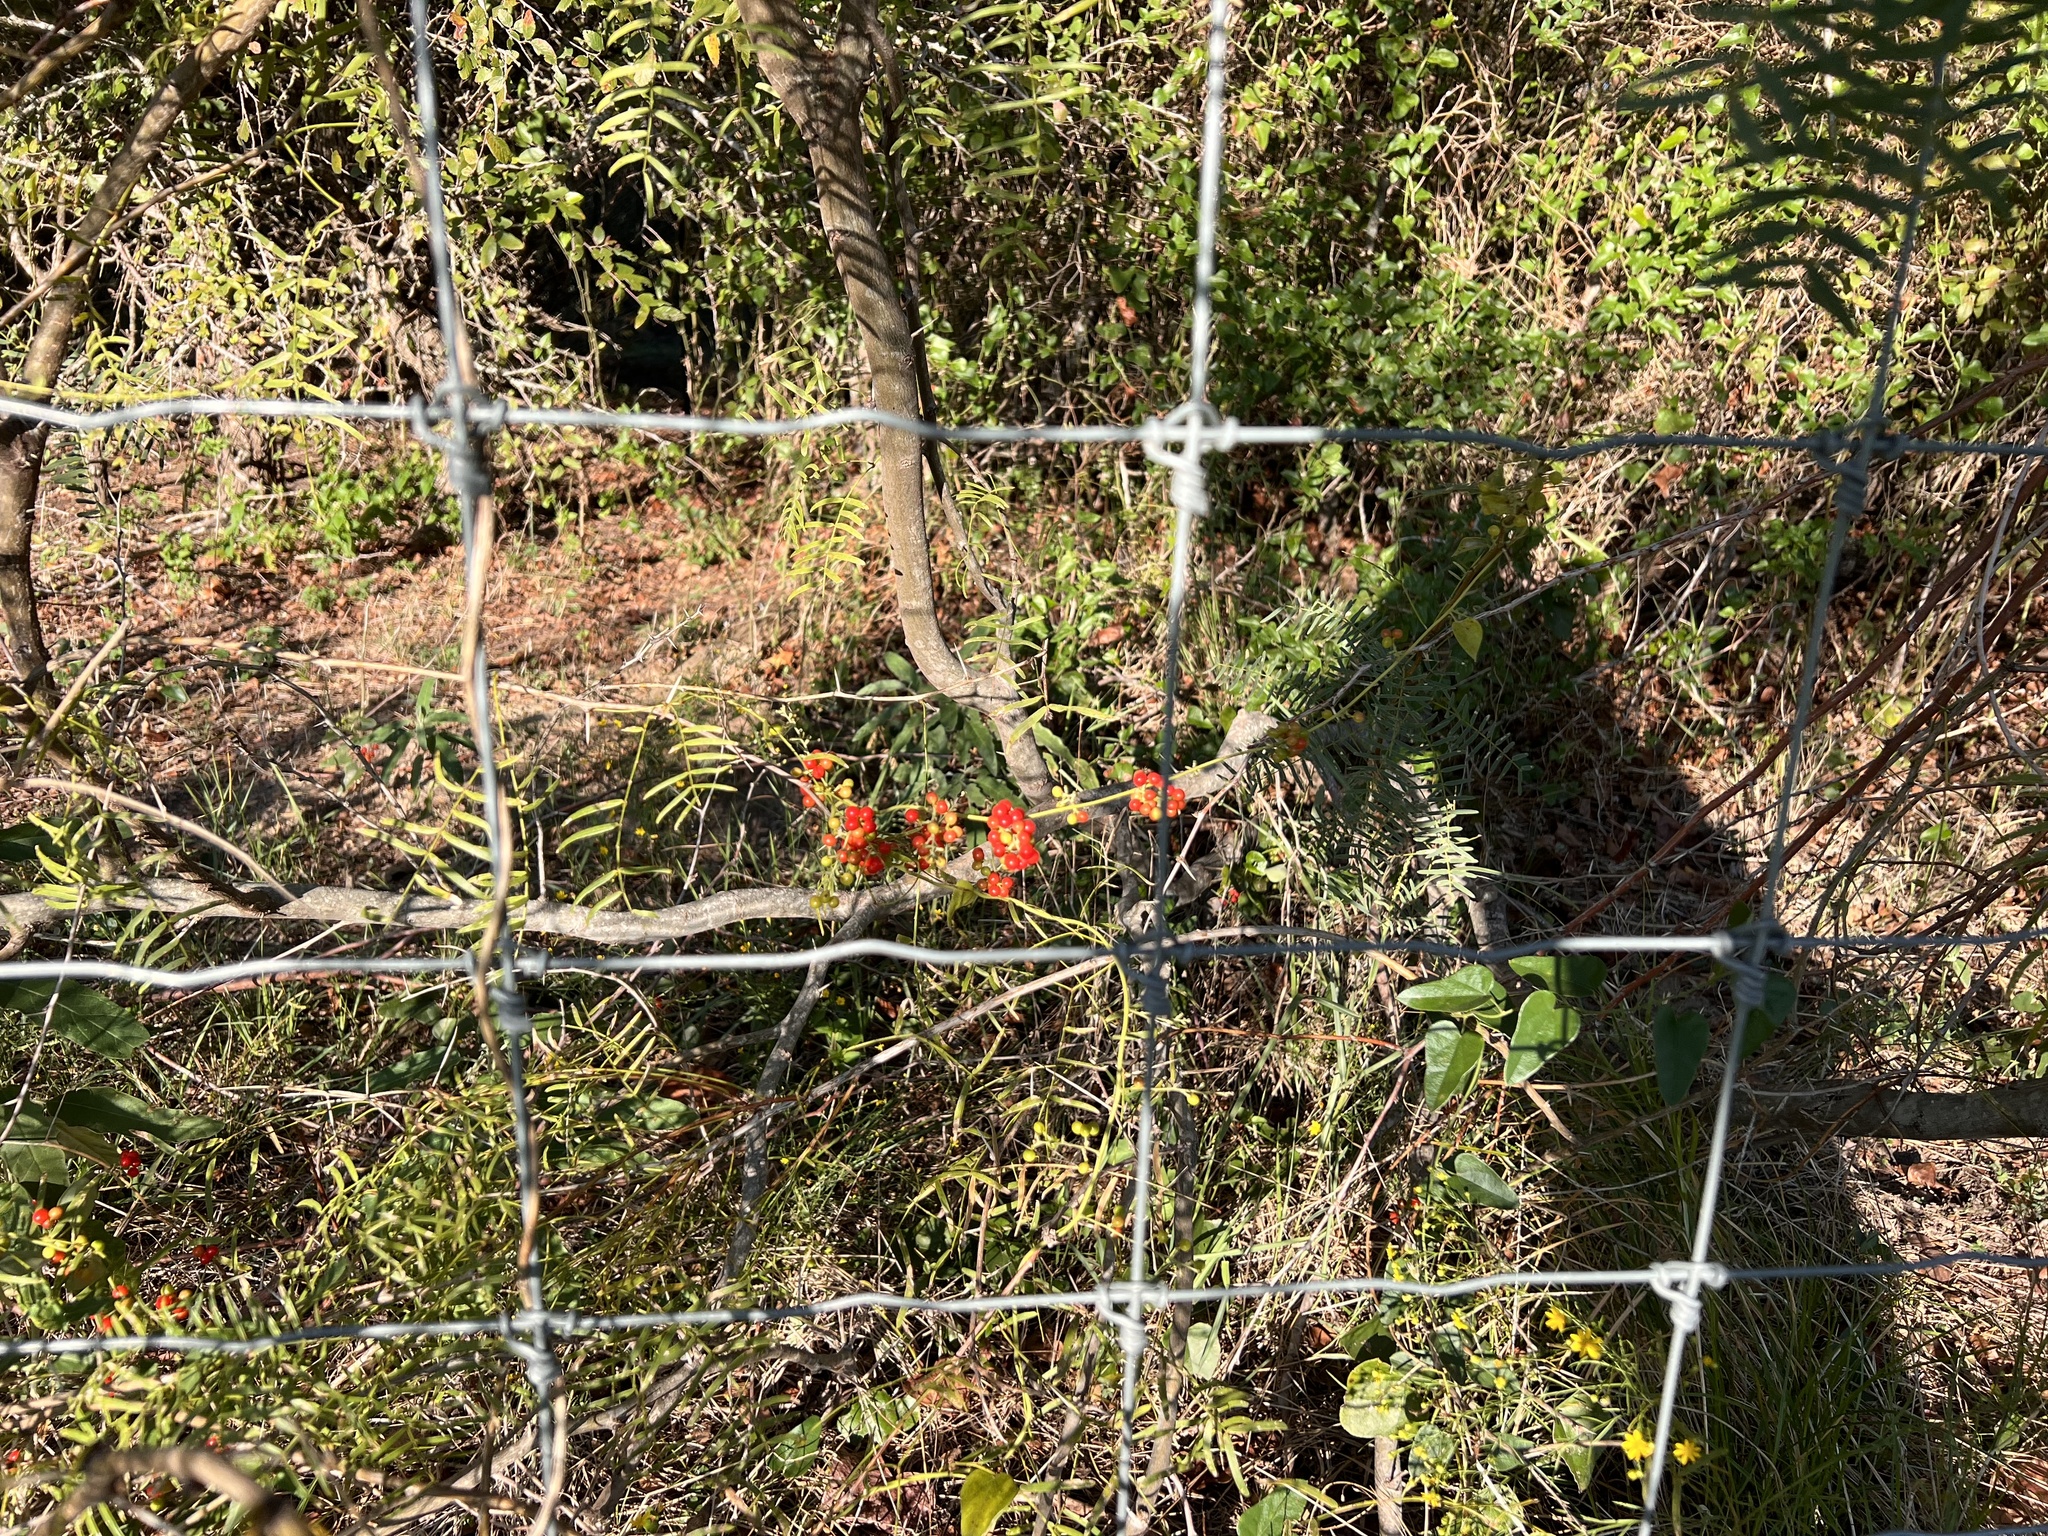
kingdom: Plantae
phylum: Tracheophyta
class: Magnoliopsida
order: Ranunculales
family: Menispermaceae
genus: Cocculus
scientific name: Cocculus carolinus
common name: Carolina moonseed
